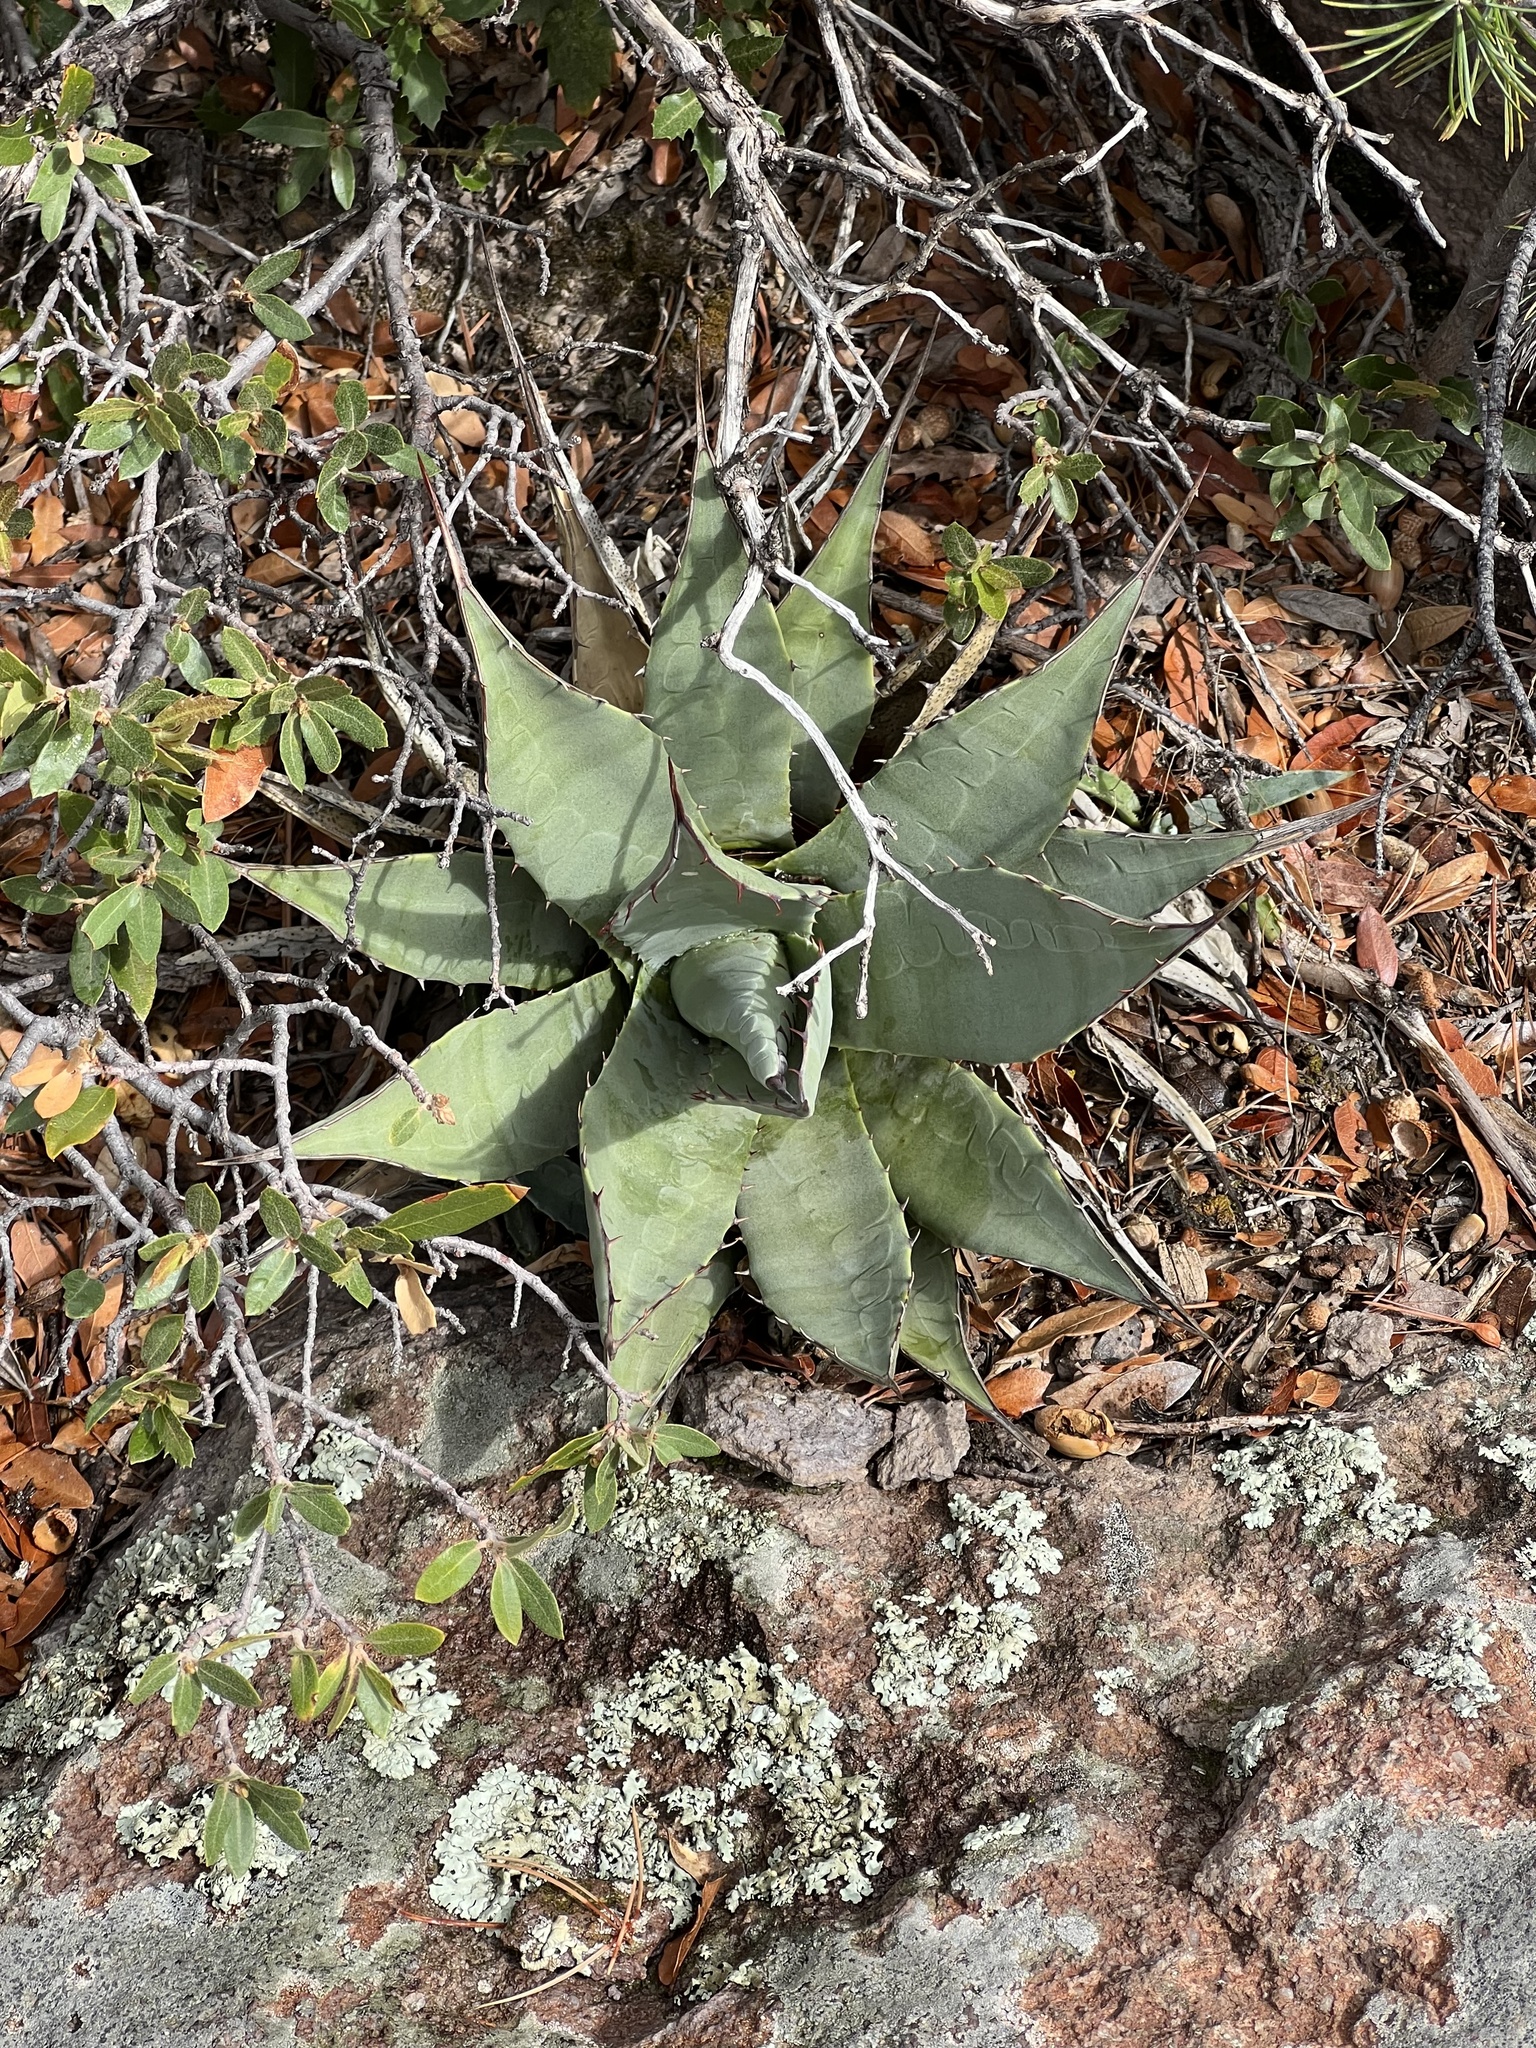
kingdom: Plantae
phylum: Tracheophyta
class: Liliopsida
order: Asparagales
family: Asparagaceae
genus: Agave
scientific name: Agave palmeri
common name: Palmer agave
